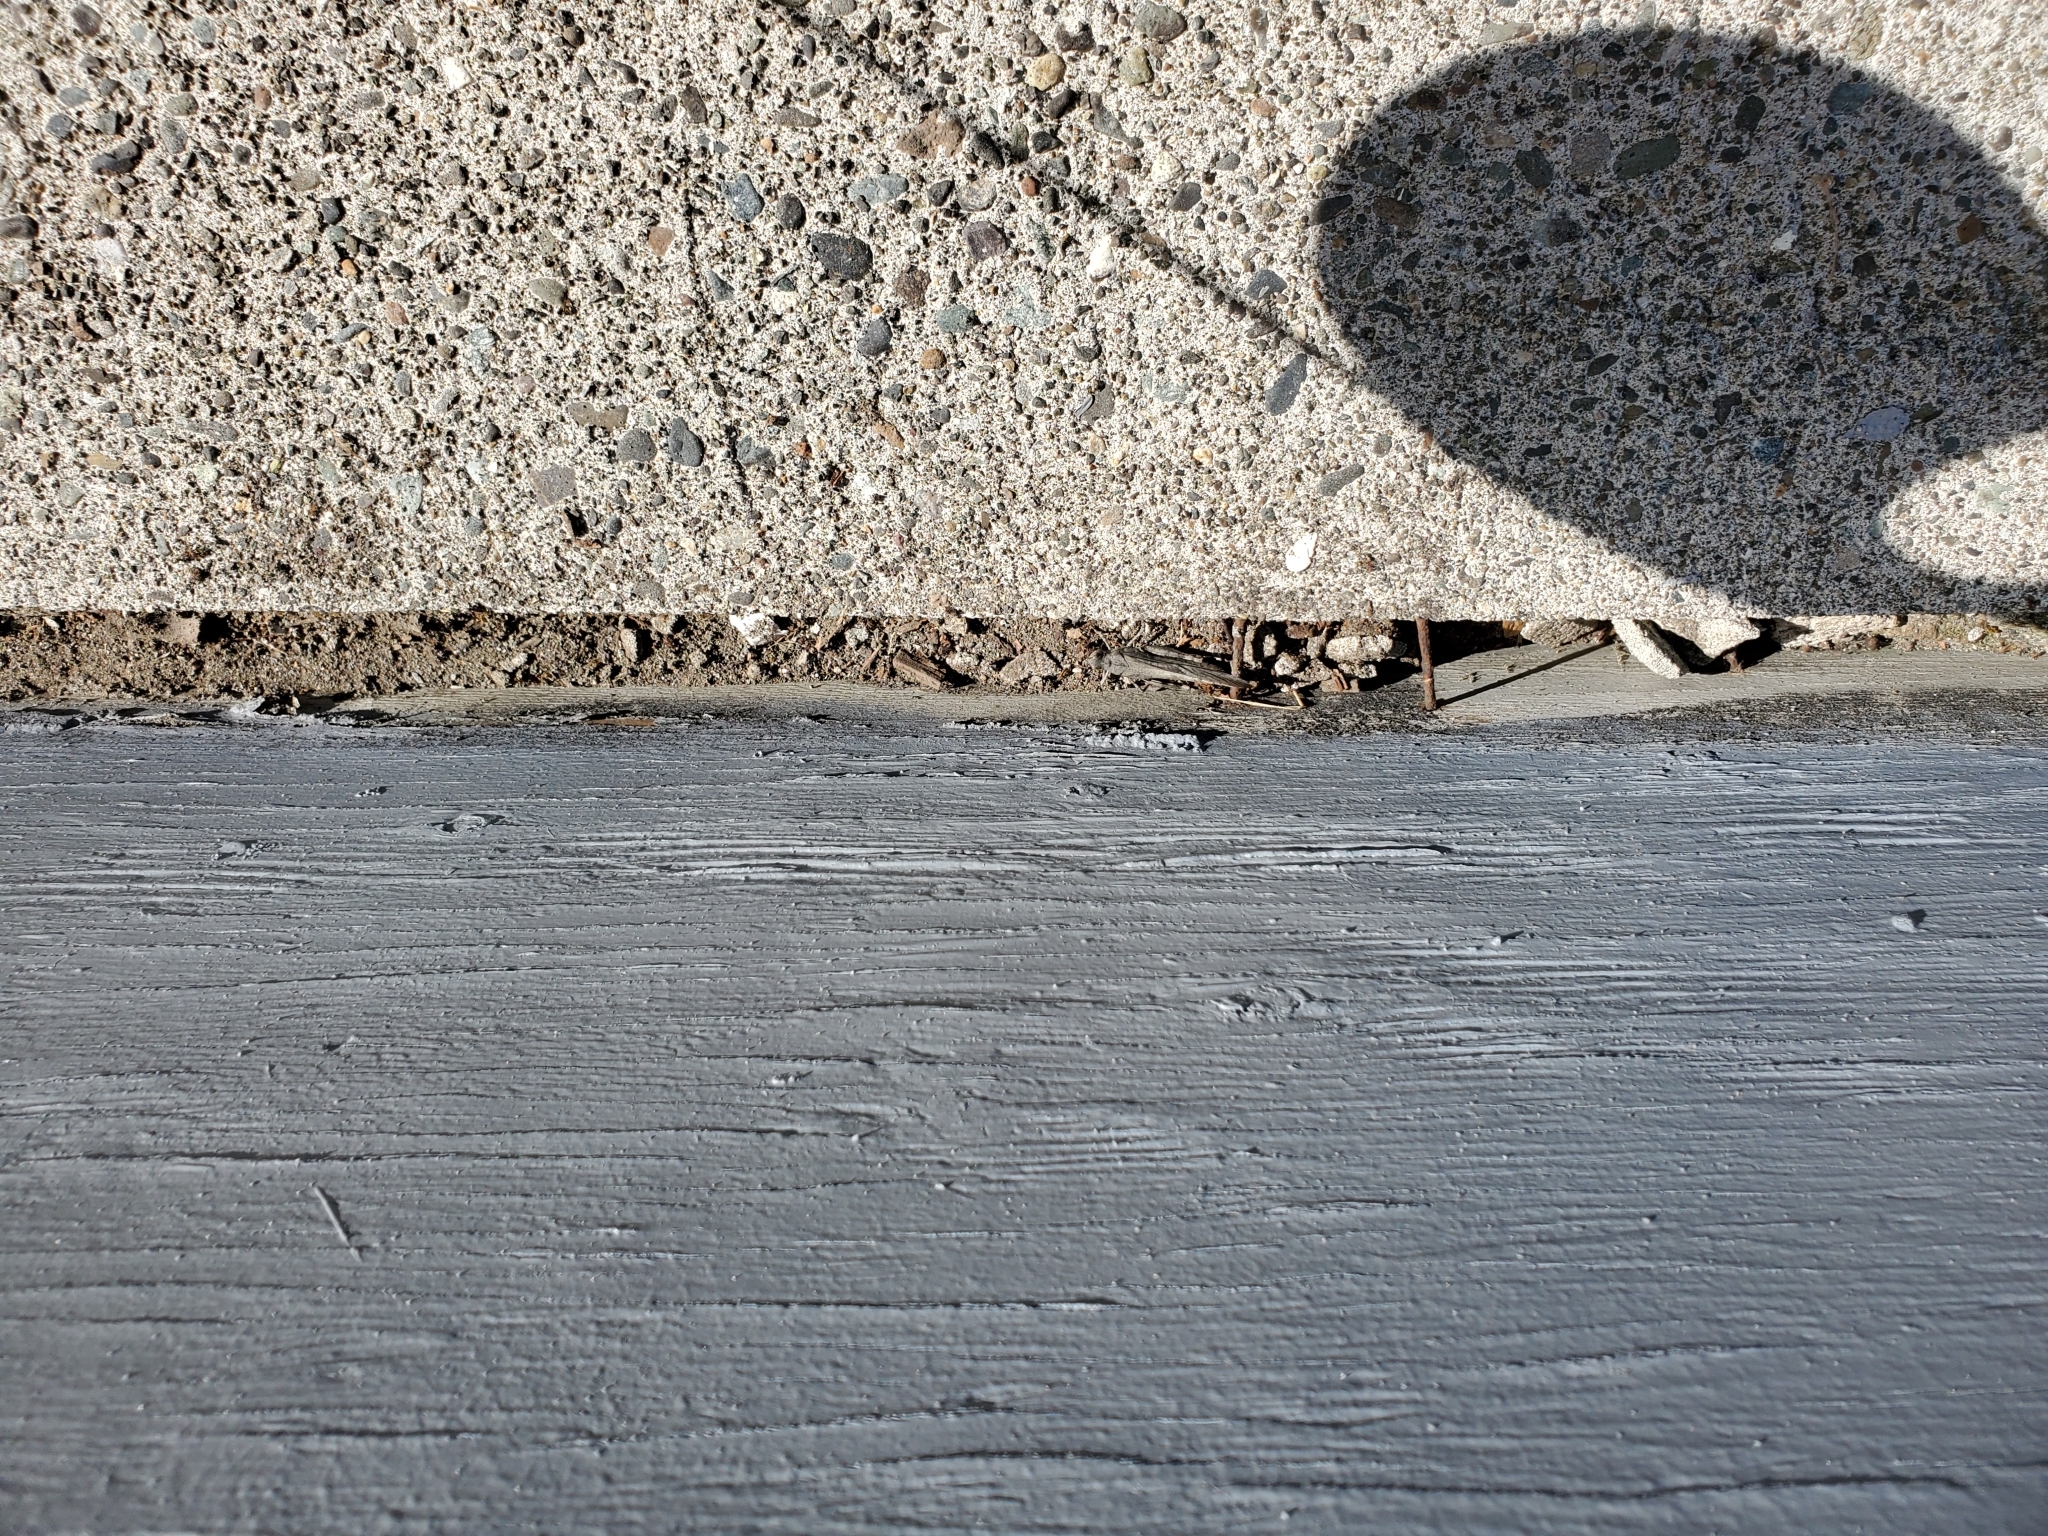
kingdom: Animalia
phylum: Arthropoda
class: Insecta
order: Orthoptera
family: Acrididae
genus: Dissosteira
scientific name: Dissosteira carolina
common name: Carolina grasshopper
